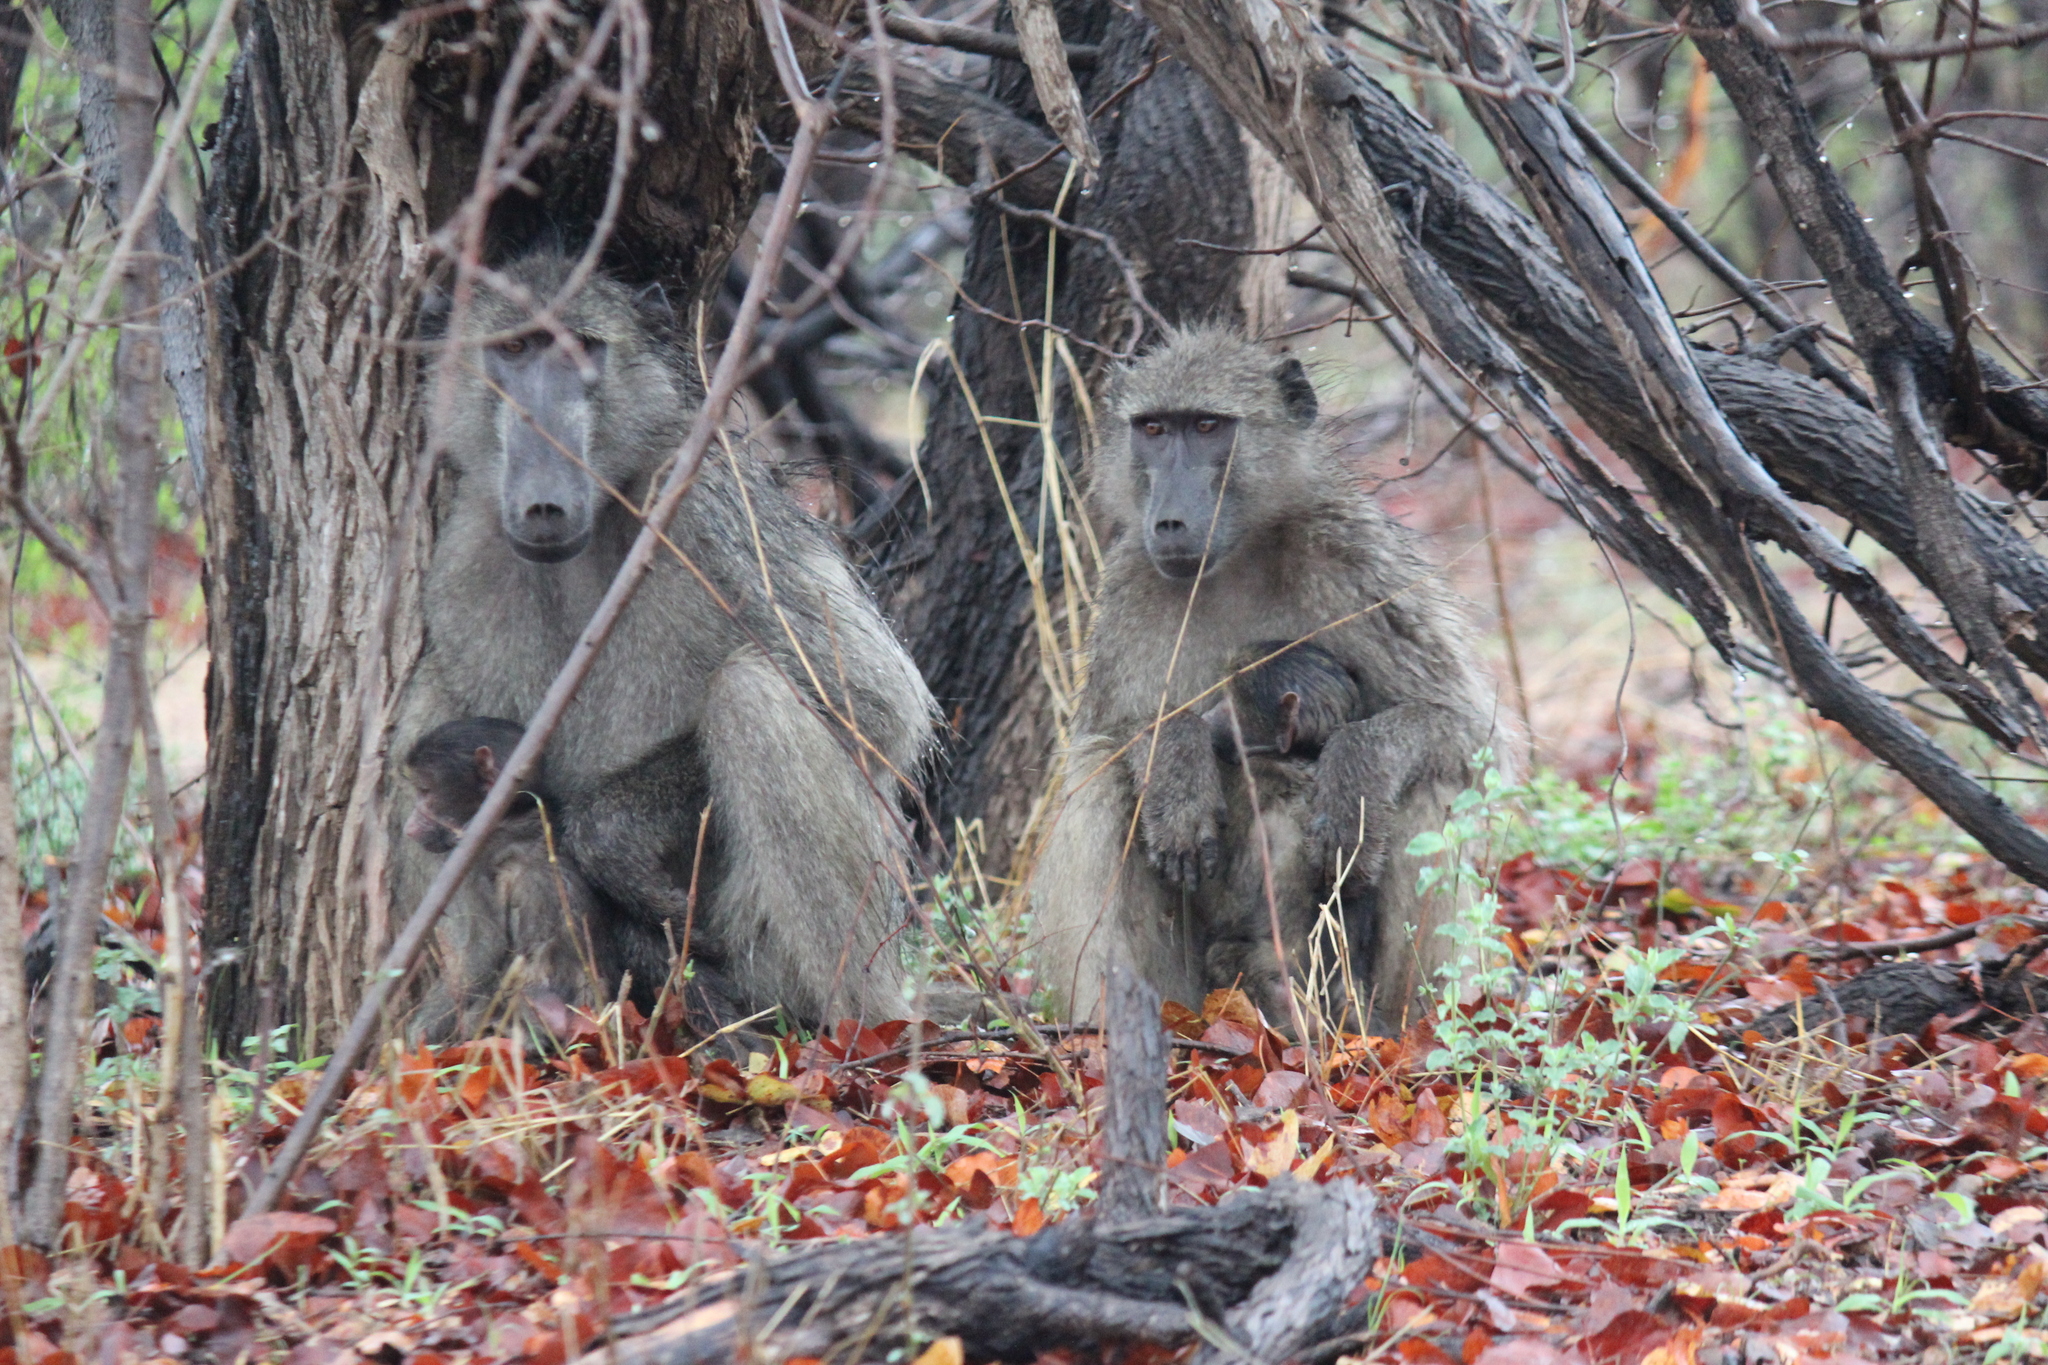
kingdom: Animalia
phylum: Chordata
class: Mammalia
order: Primates
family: Cercopithecidae
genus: Papio
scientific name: Papio ursinus
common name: Chacma baboon
